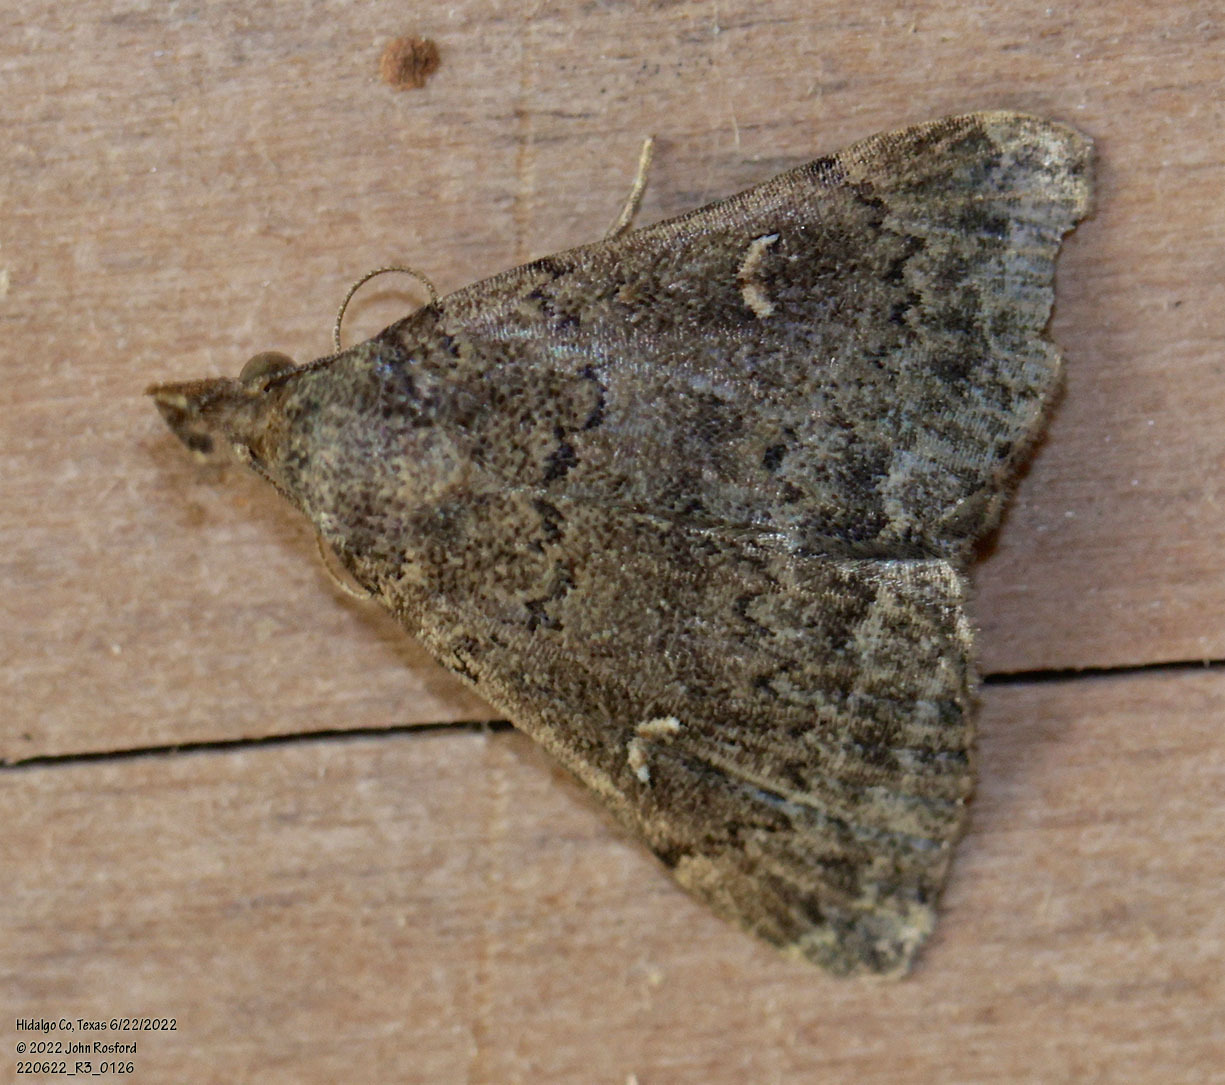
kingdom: Animalia
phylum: Arthropoda
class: Insecta
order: Lepidoptera
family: Erebidae
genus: Hypenula
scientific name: Hypenula cacuminalis
